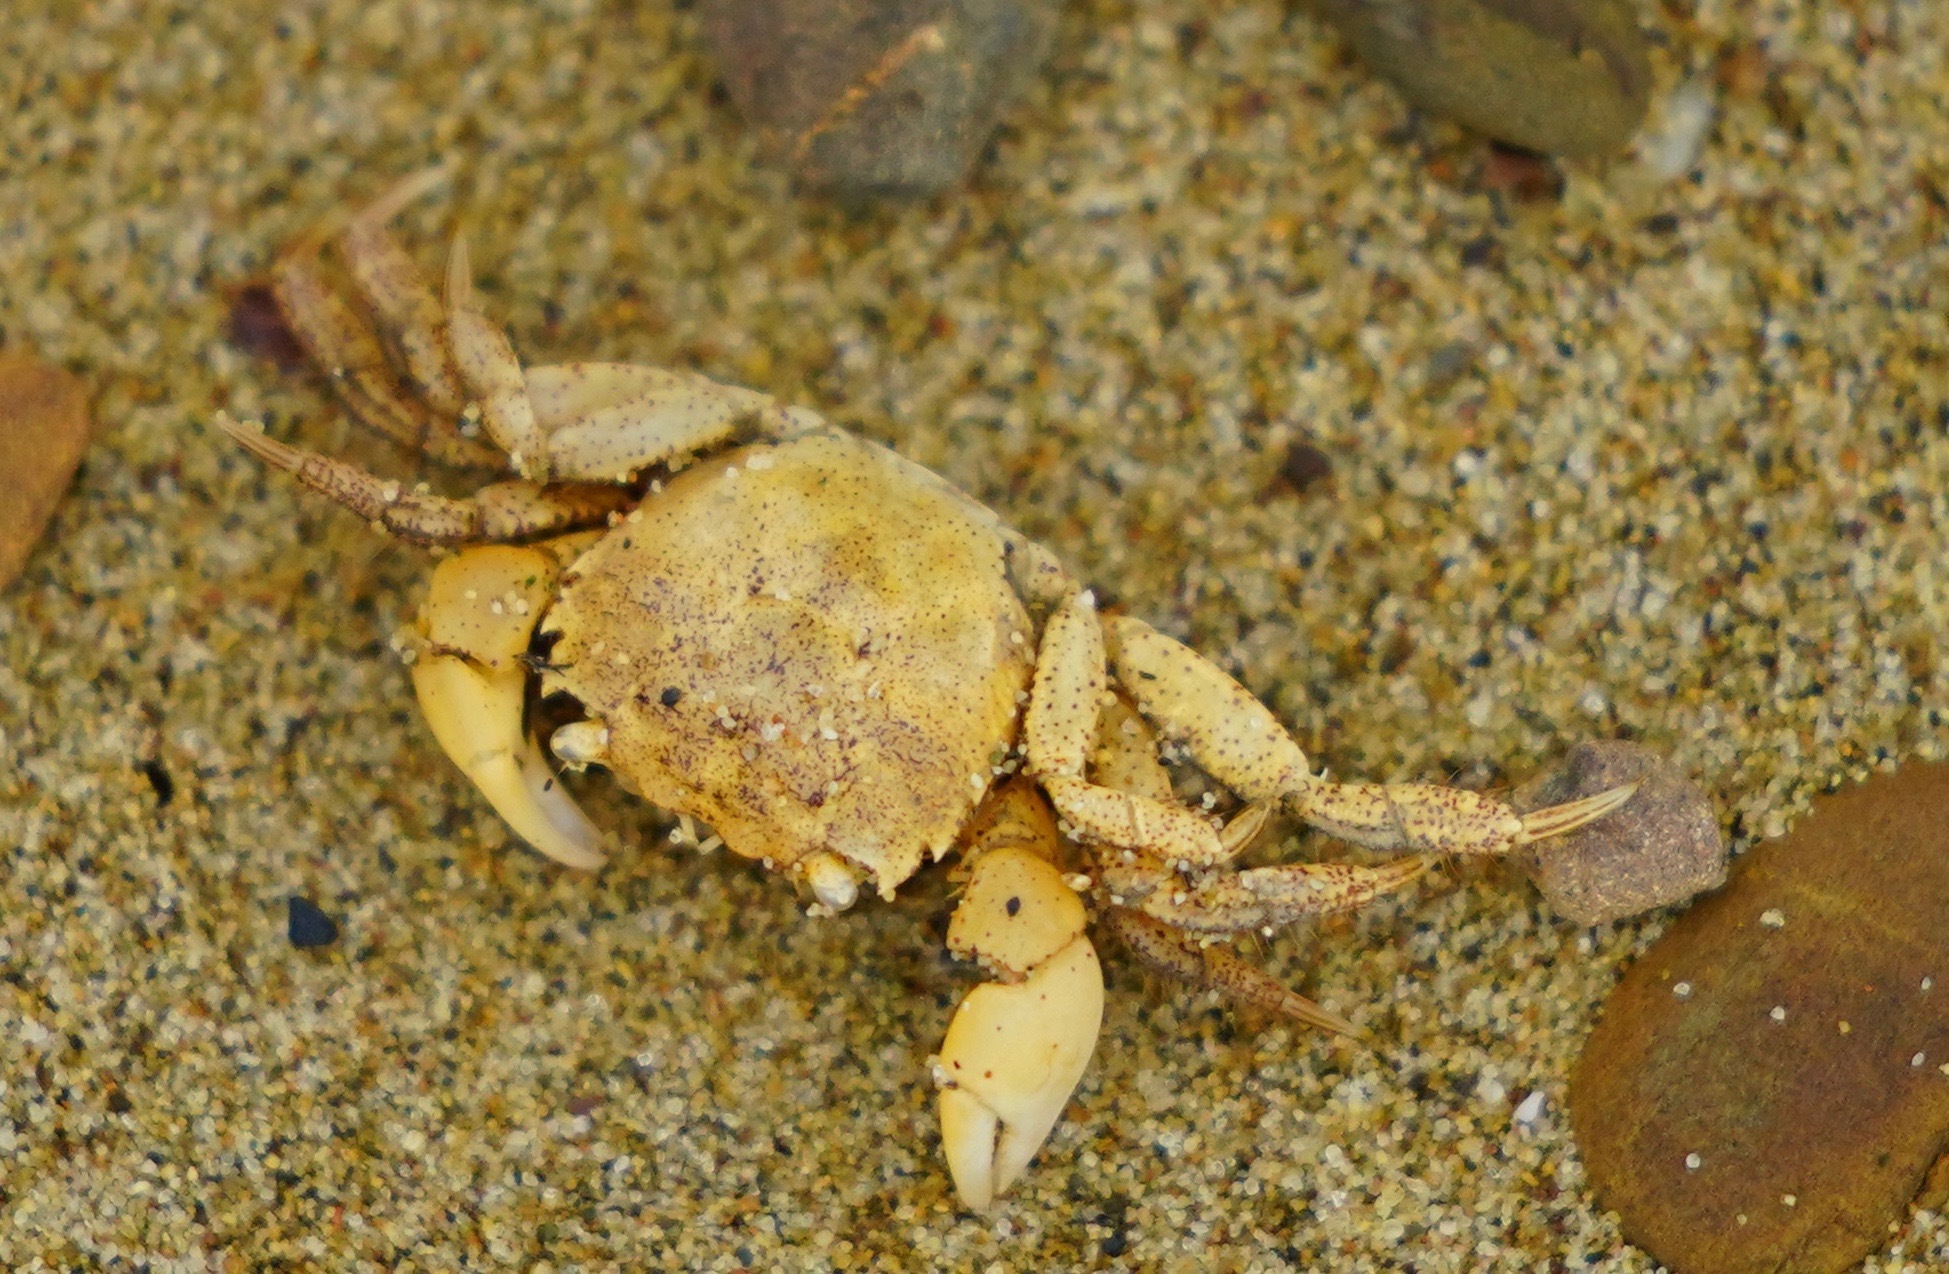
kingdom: Animalia
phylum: Arthropoda
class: Malacostraca
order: Decapoda
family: Varunidae
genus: Hemigrapsus
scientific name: Hemigrapsus oregonensis
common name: Yellow shore crab
